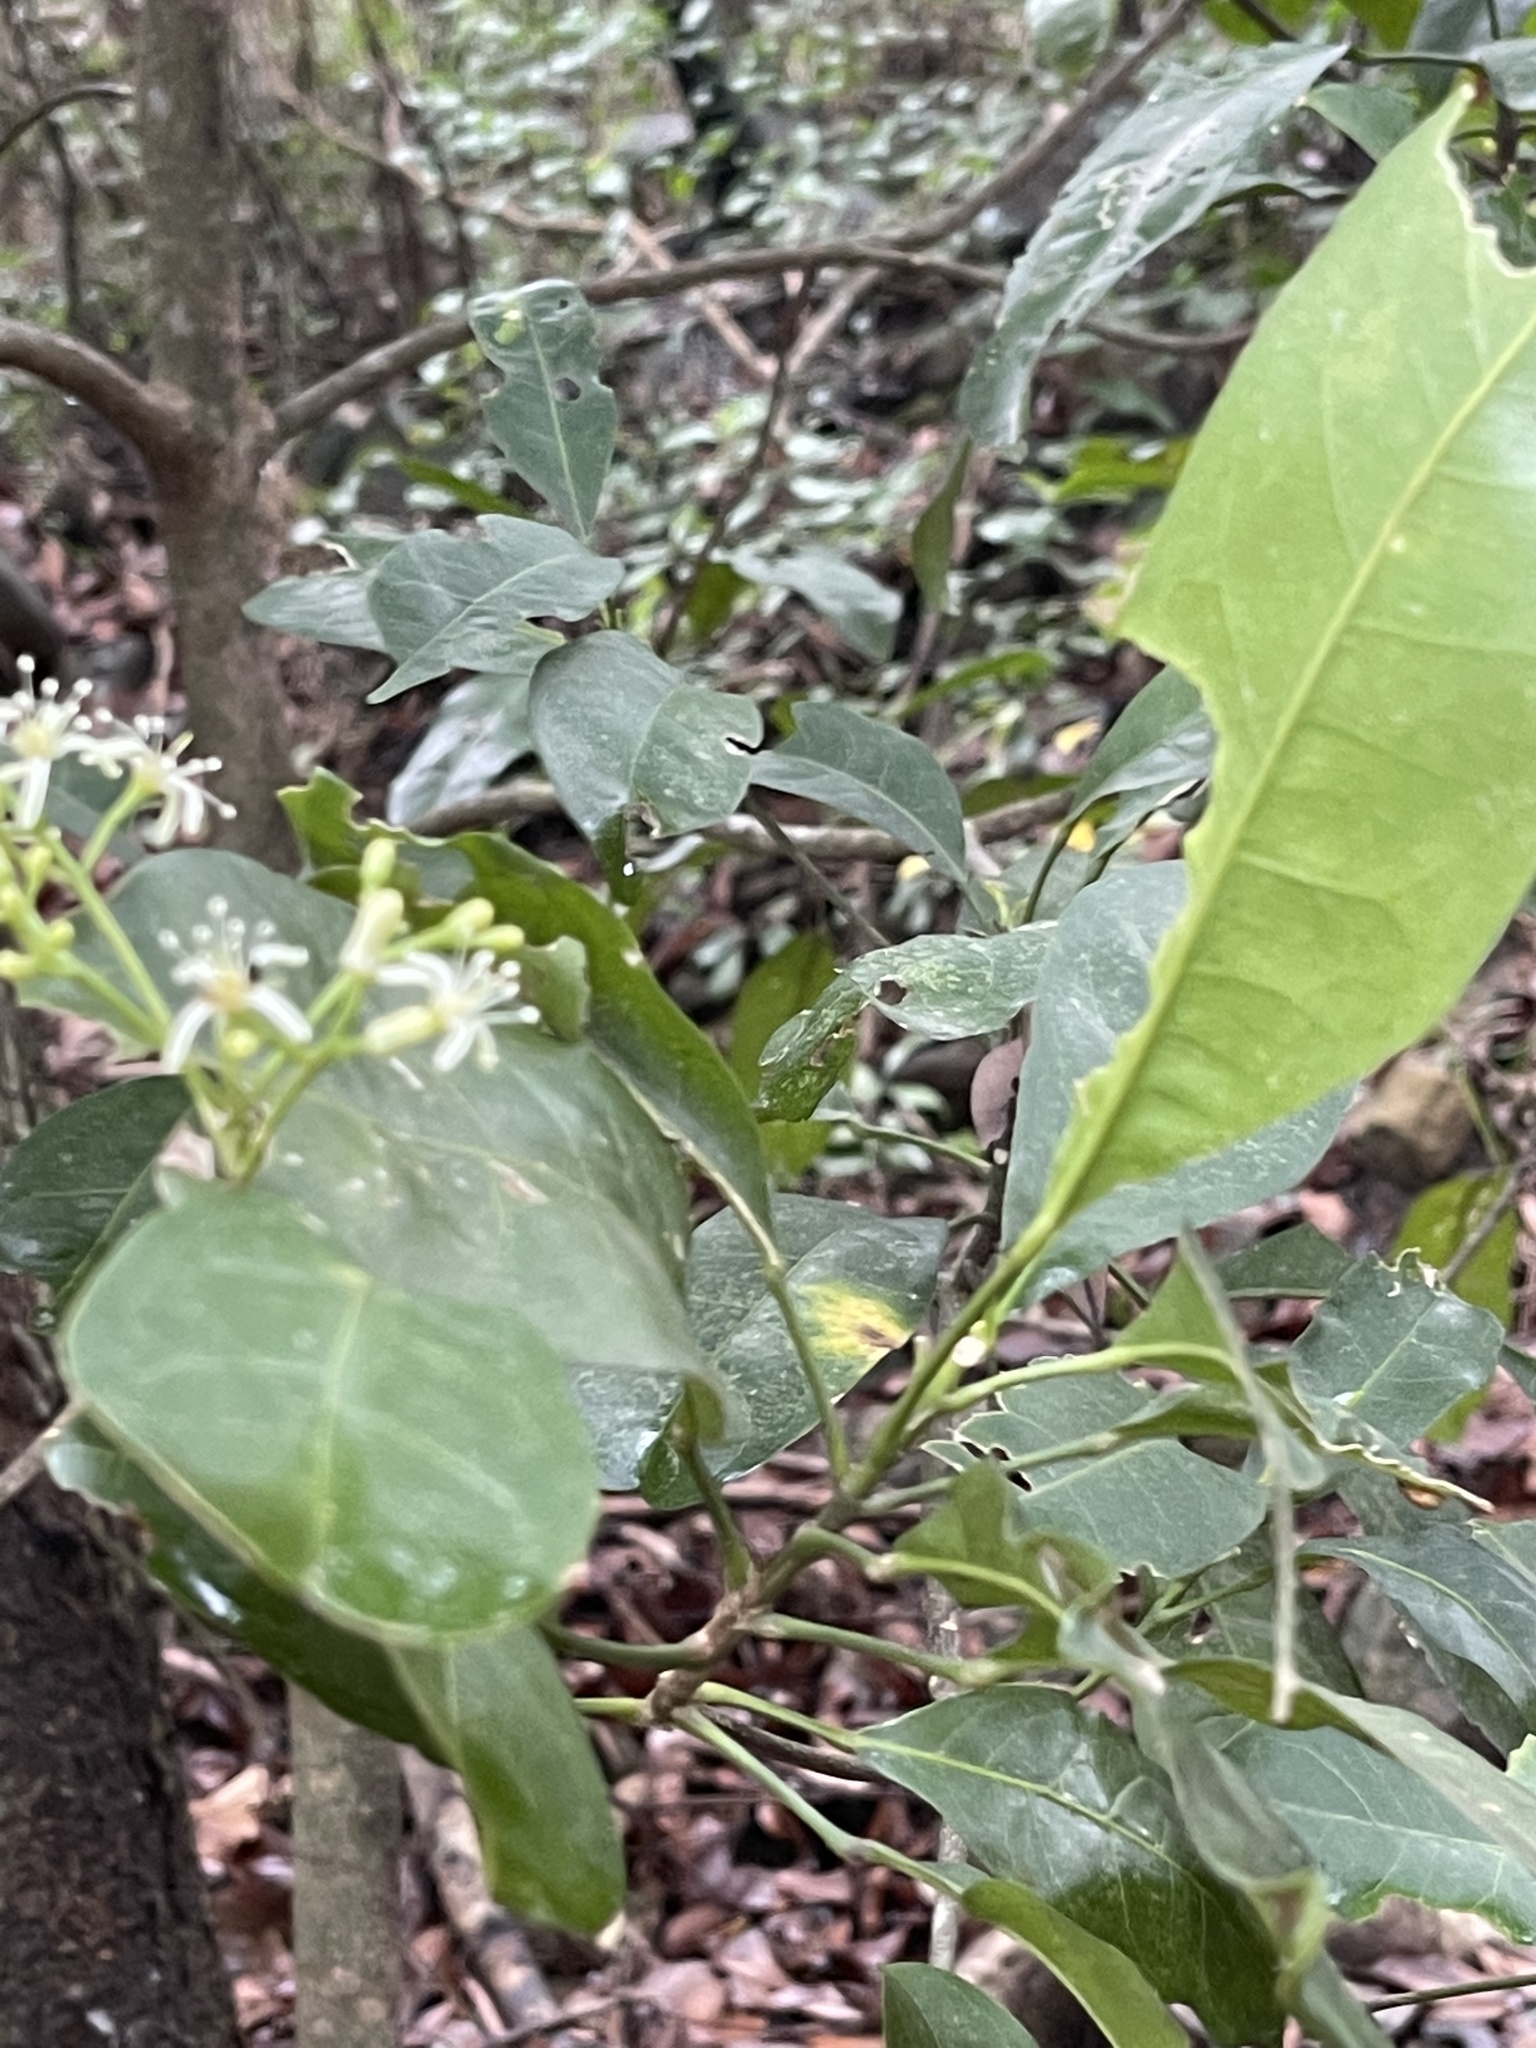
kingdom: Plantae
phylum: Tracheophyta
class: Magnoliopsida
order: Sapindales
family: Rutaceae
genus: Acronychia
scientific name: Acronychia pedunculata
